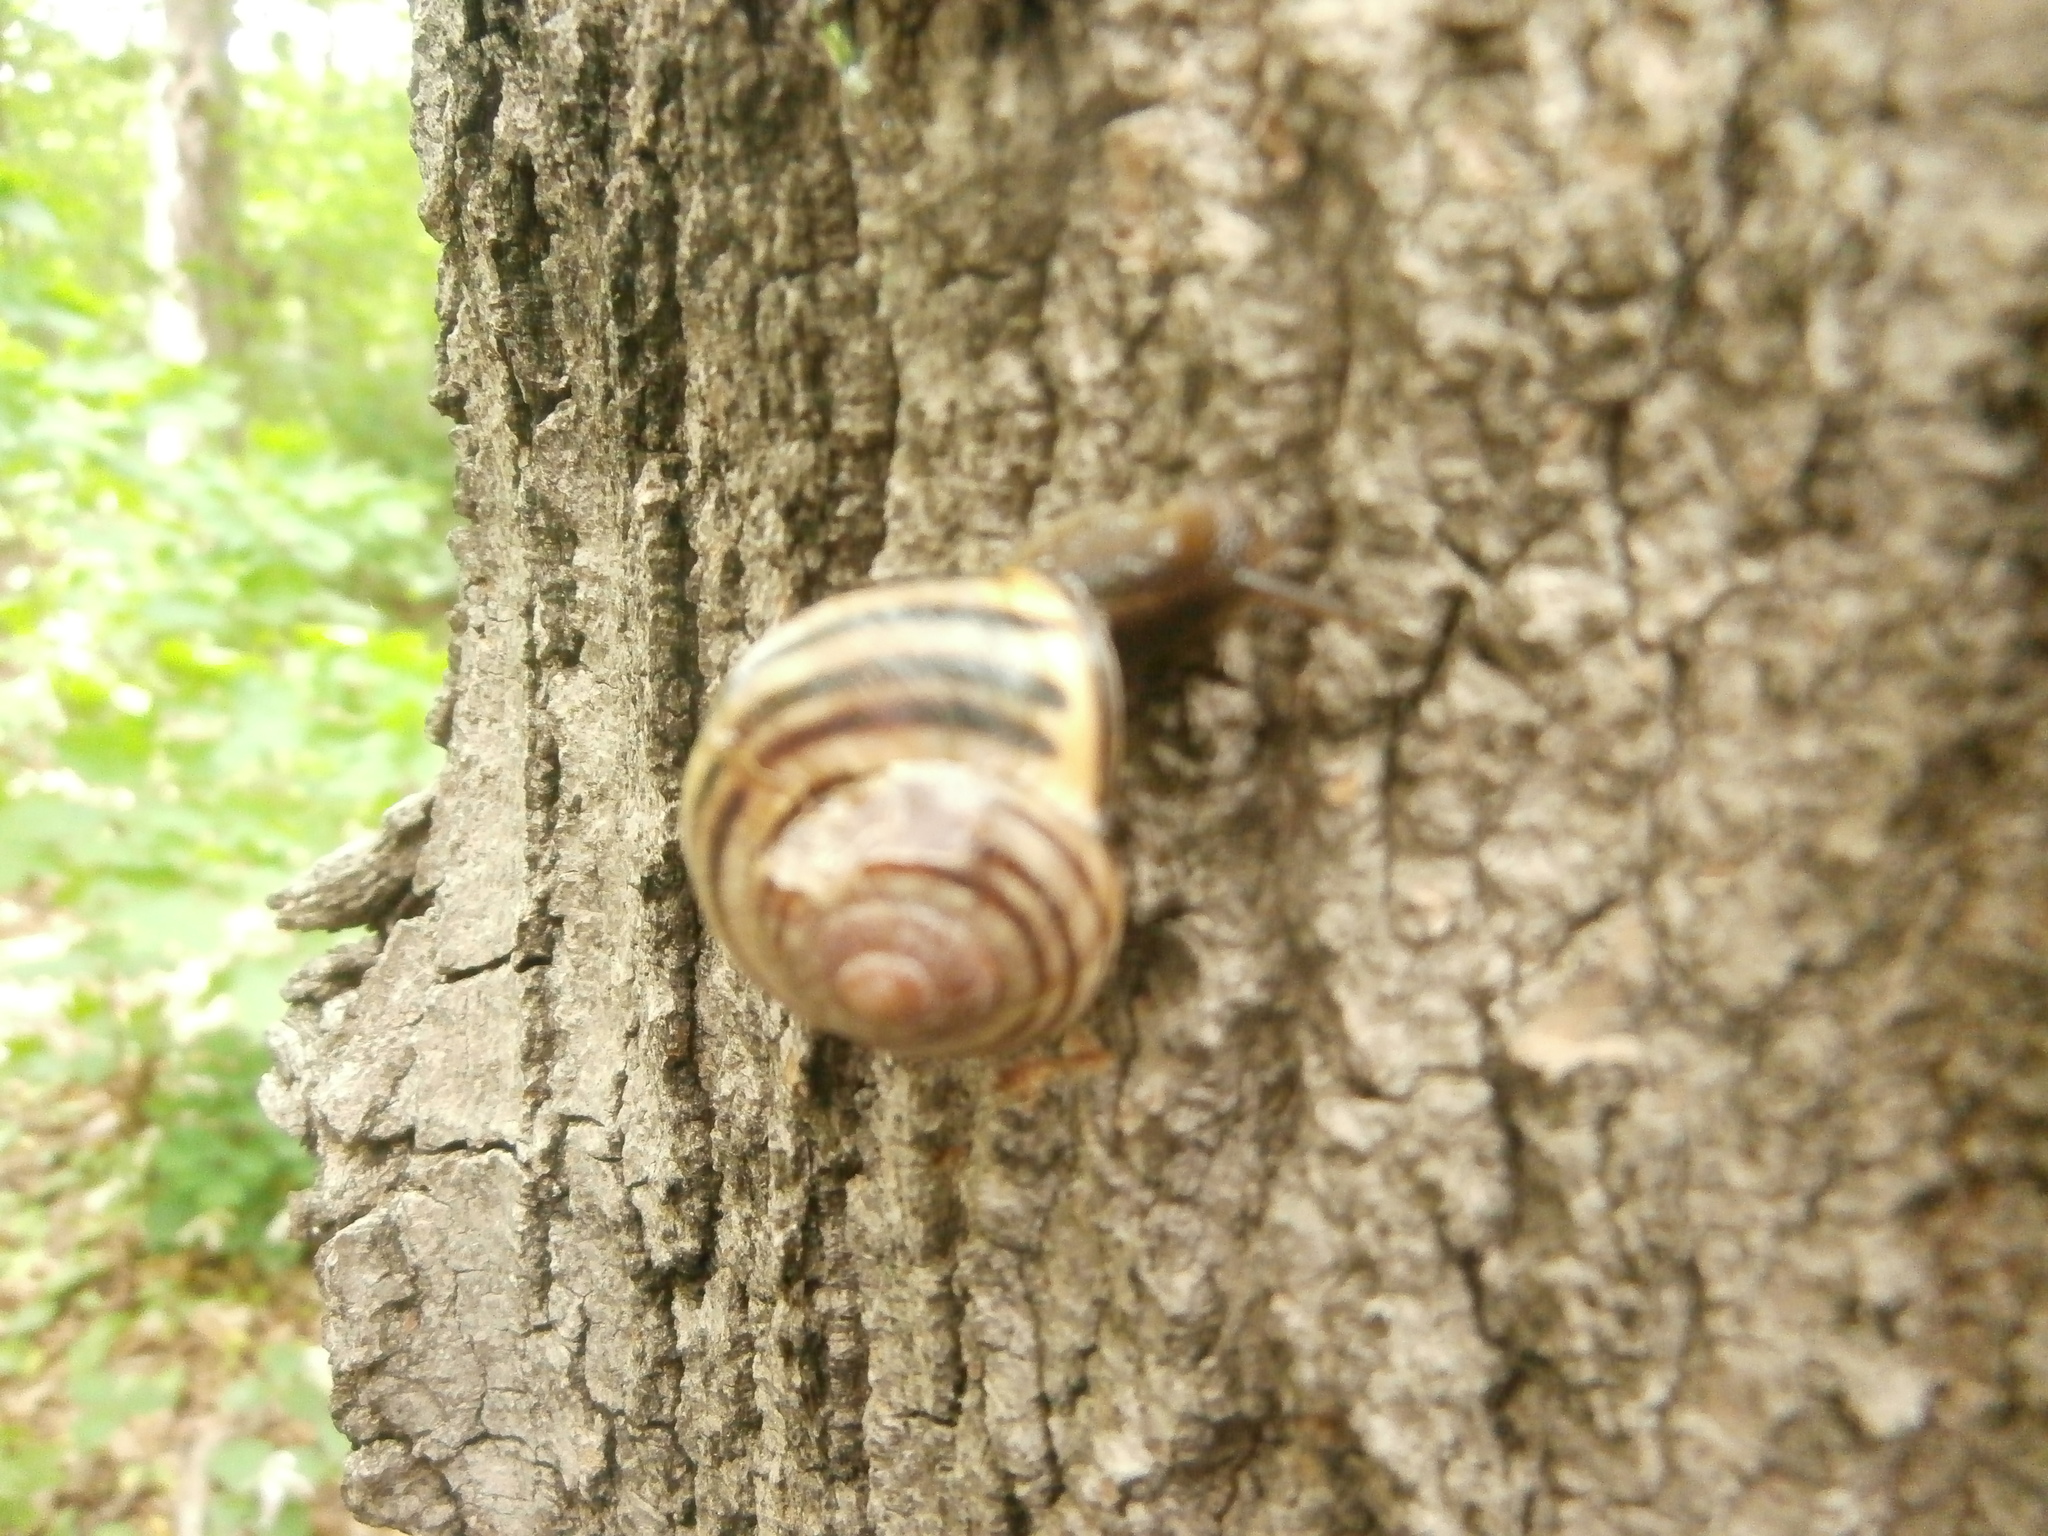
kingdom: Animalia
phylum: Mollusca
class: Gastropoda
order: Stylommatophora
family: Helicidae
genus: Cepaea
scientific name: Cepaea nemoralis
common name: Grovesnail
